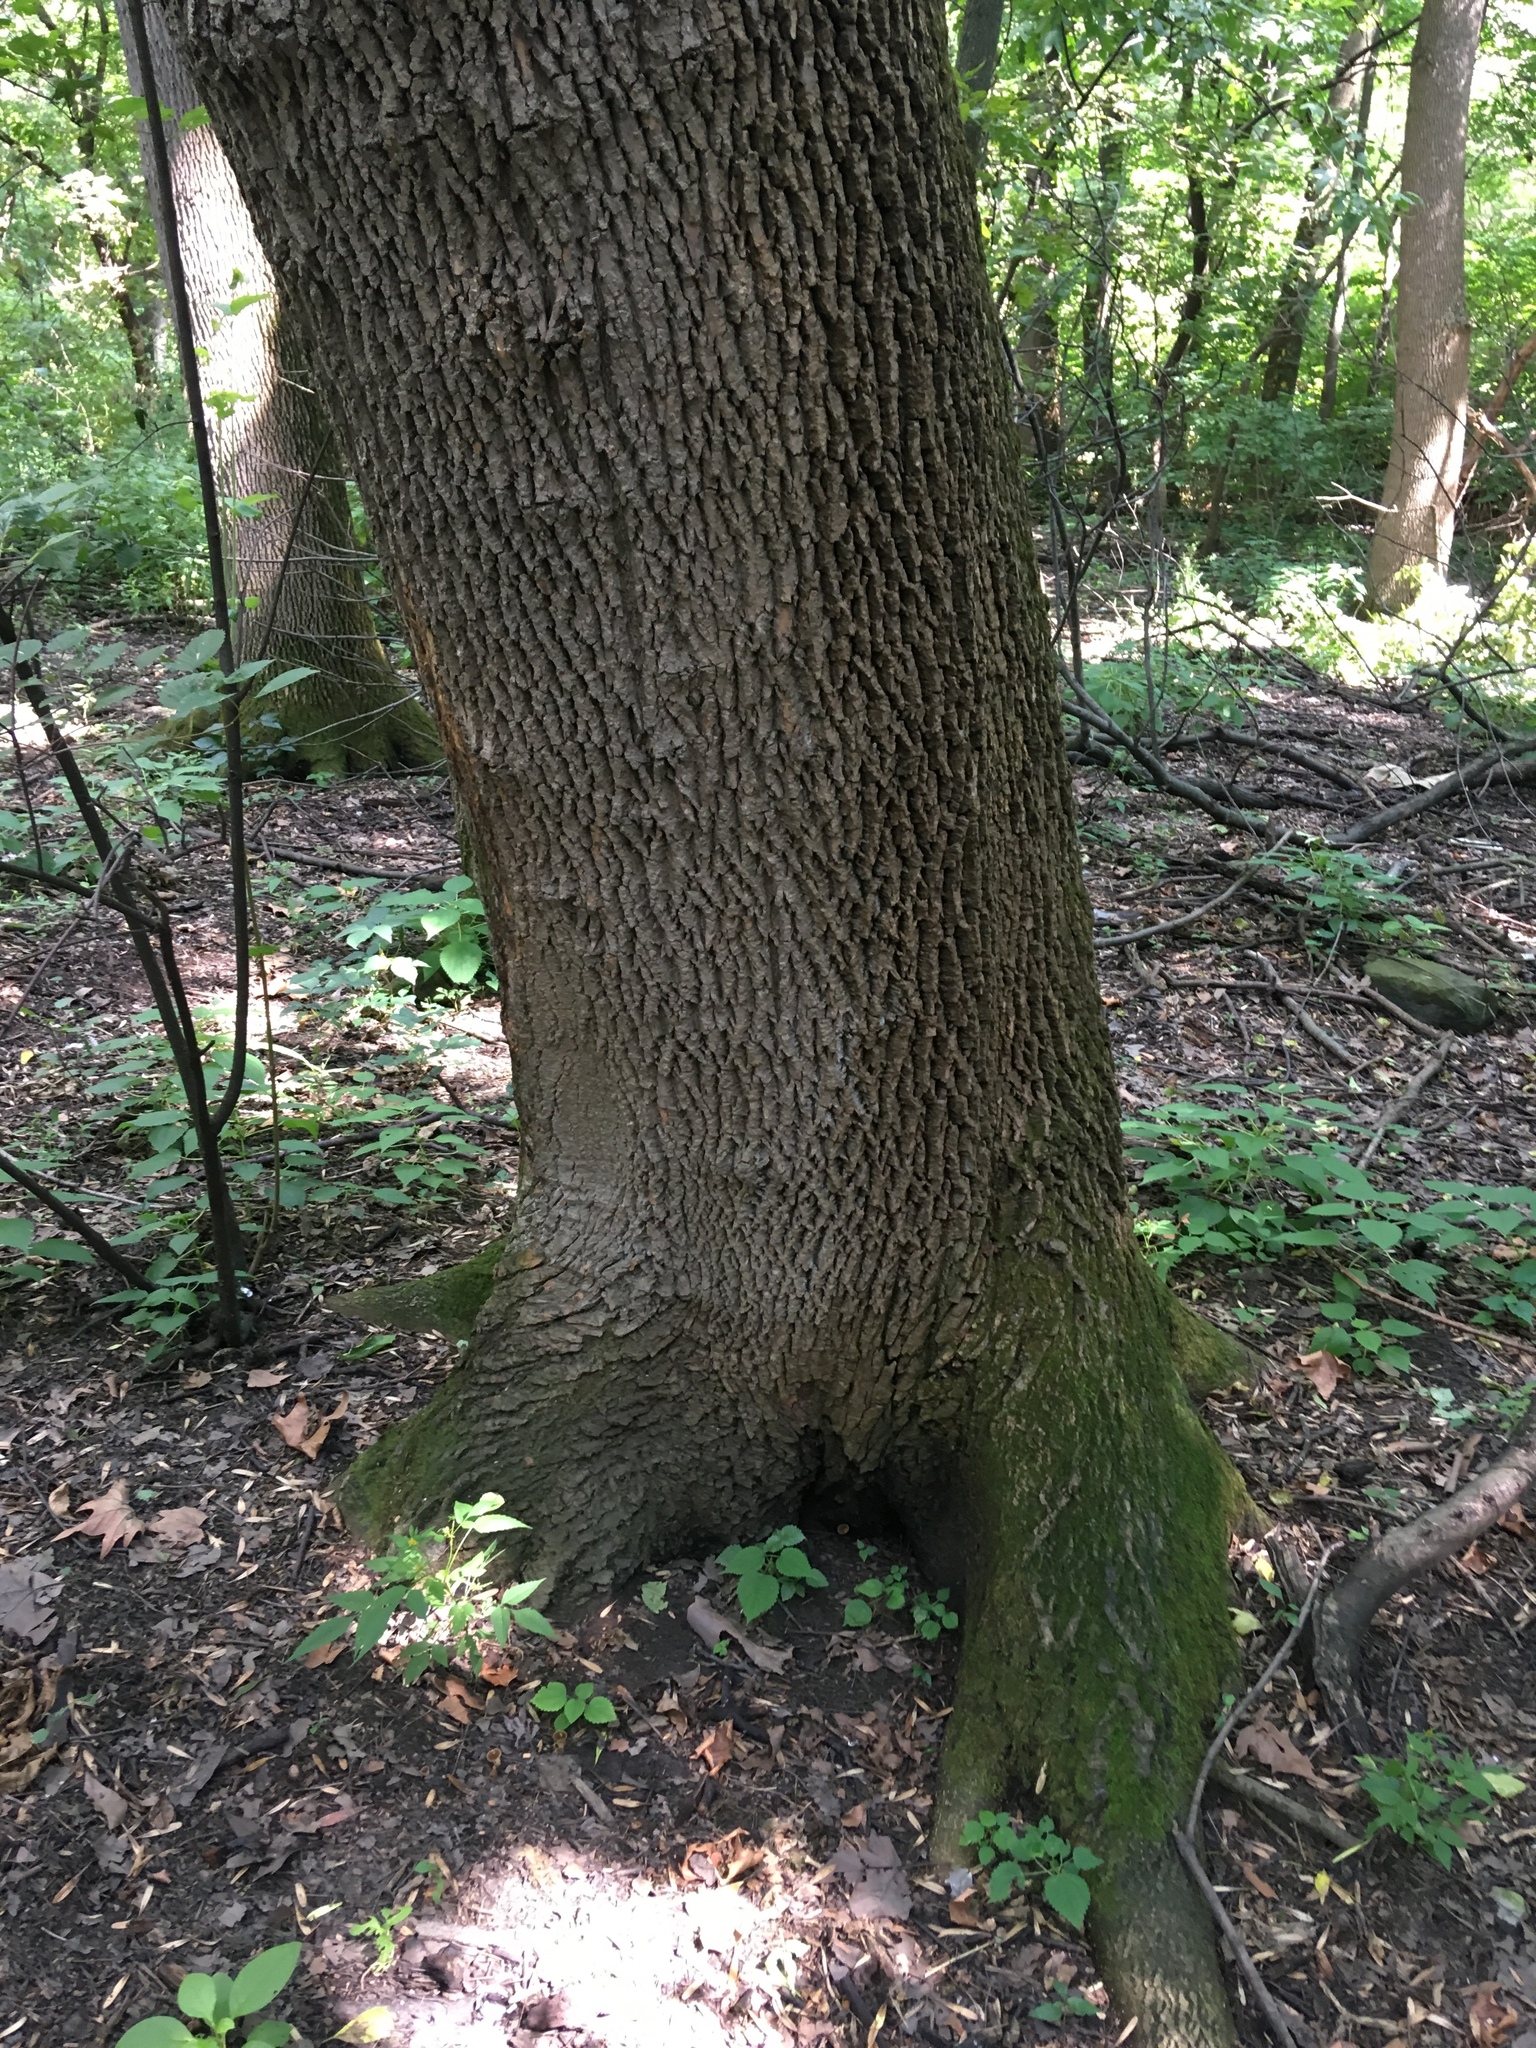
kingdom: Plantae
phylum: Tracheophyta
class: Magnoliopsida
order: Lamiales
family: Oleaceae
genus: Fraxinus
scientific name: Fraxinus profunda
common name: Pumpkin ash
